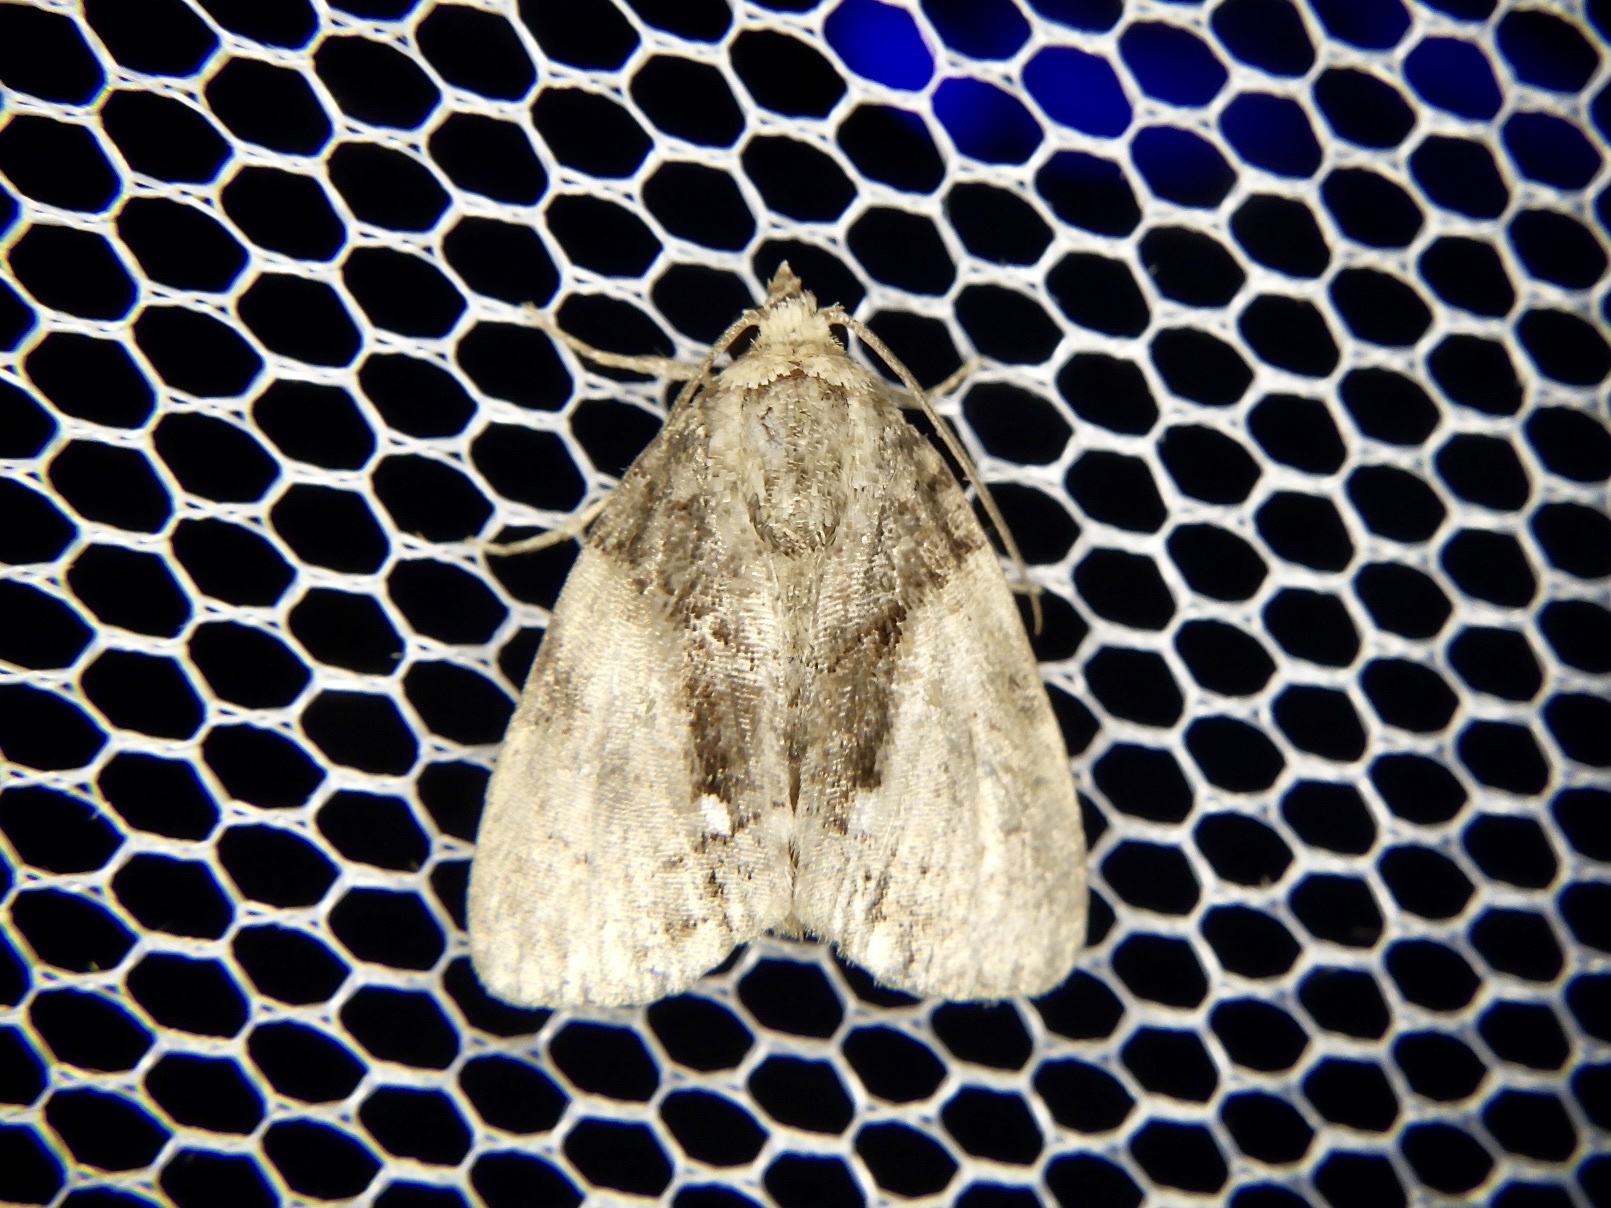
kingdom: Animalia
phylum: Arthropoda
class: Insecta
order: Lepidoptera
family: Noctuidae
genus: Chytonix
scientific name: Chytonix albonotata
